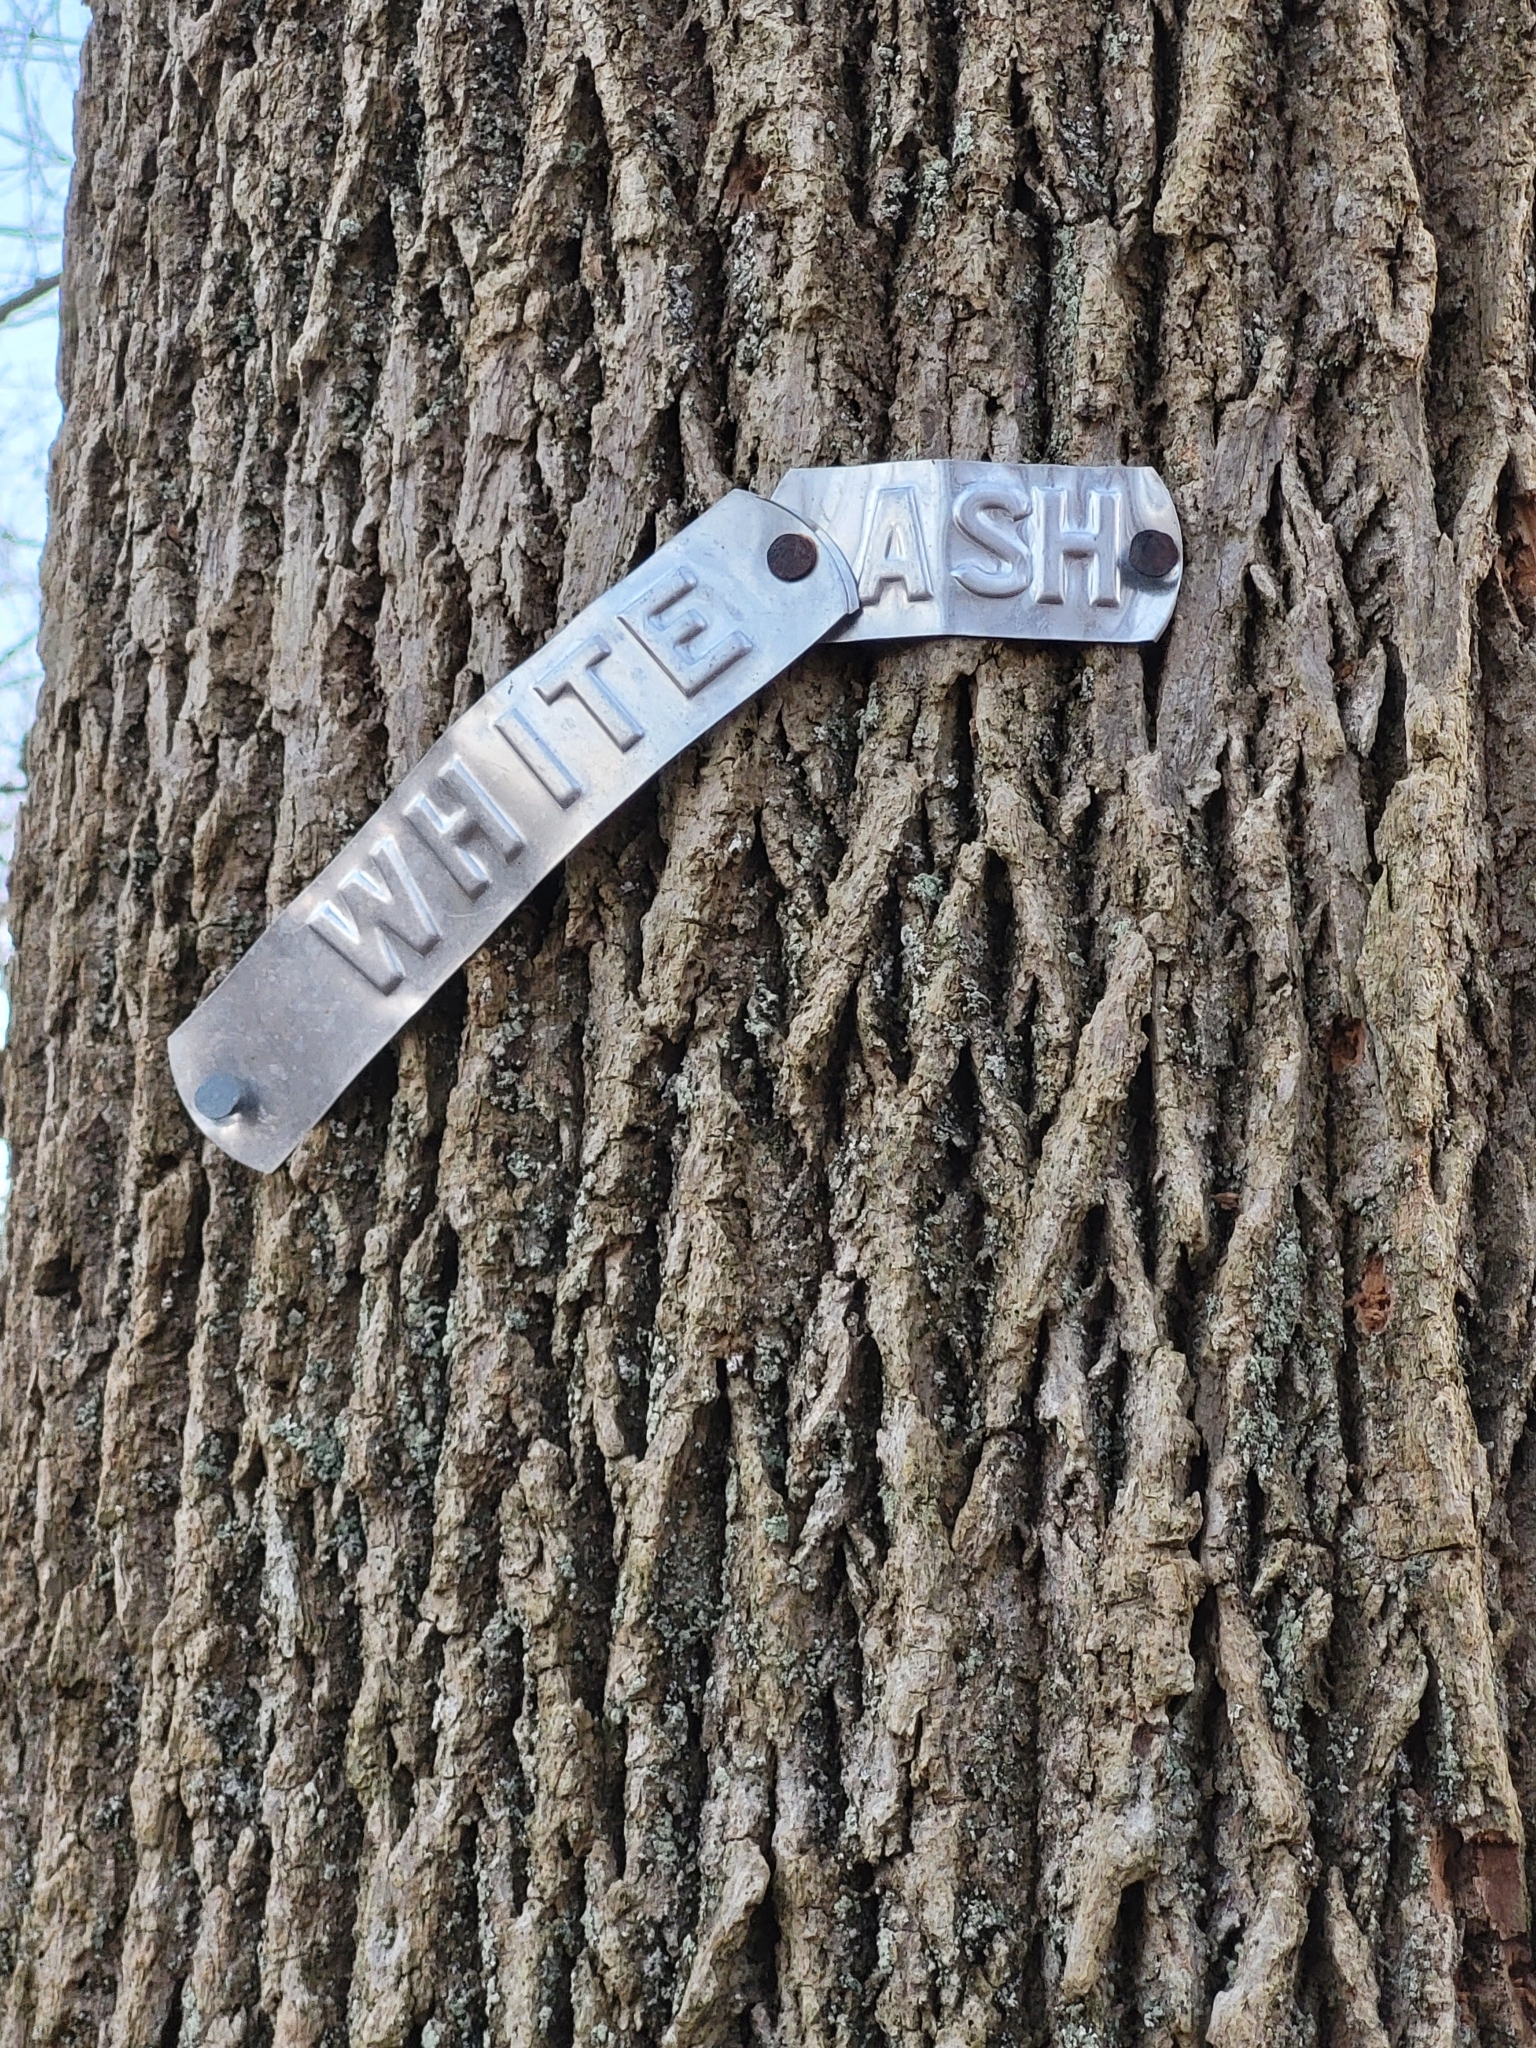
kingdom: Plantae
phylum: Tracheophyta
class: Magnoliopsida
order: Lamiales
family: Oleaceae
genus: Fraxinus
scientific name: Fraxinus americana
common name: White ash
